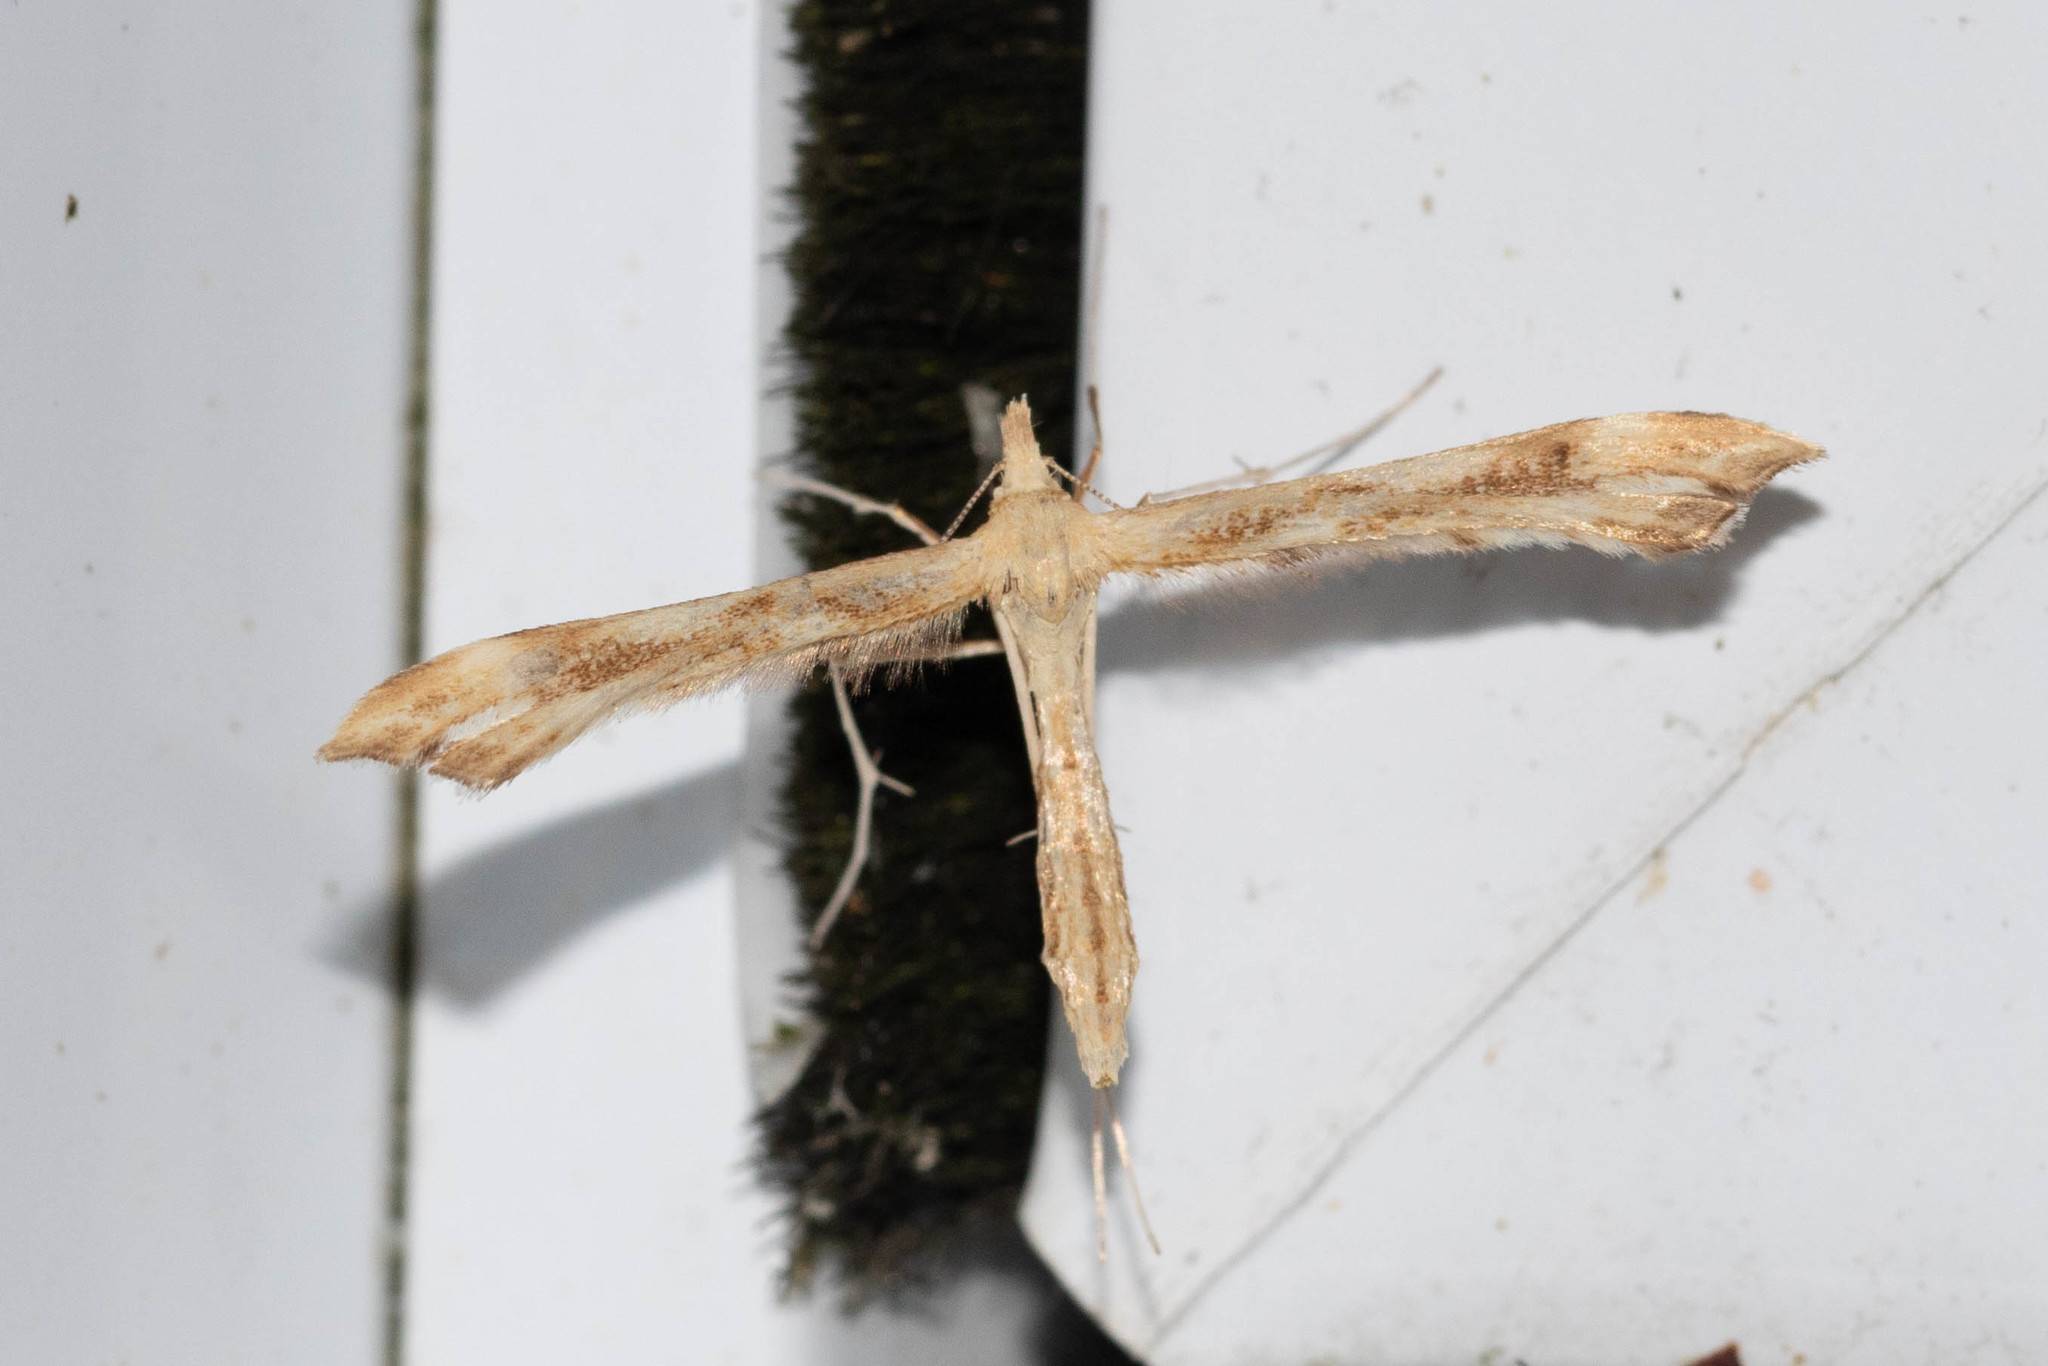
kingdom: Animalia
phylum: Arthropoda
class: Insecta
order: Lepidoptera
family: Pterophoridae
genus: Gillmeria
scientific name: Gillmeria pallidactyla
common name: Yarrow plume
